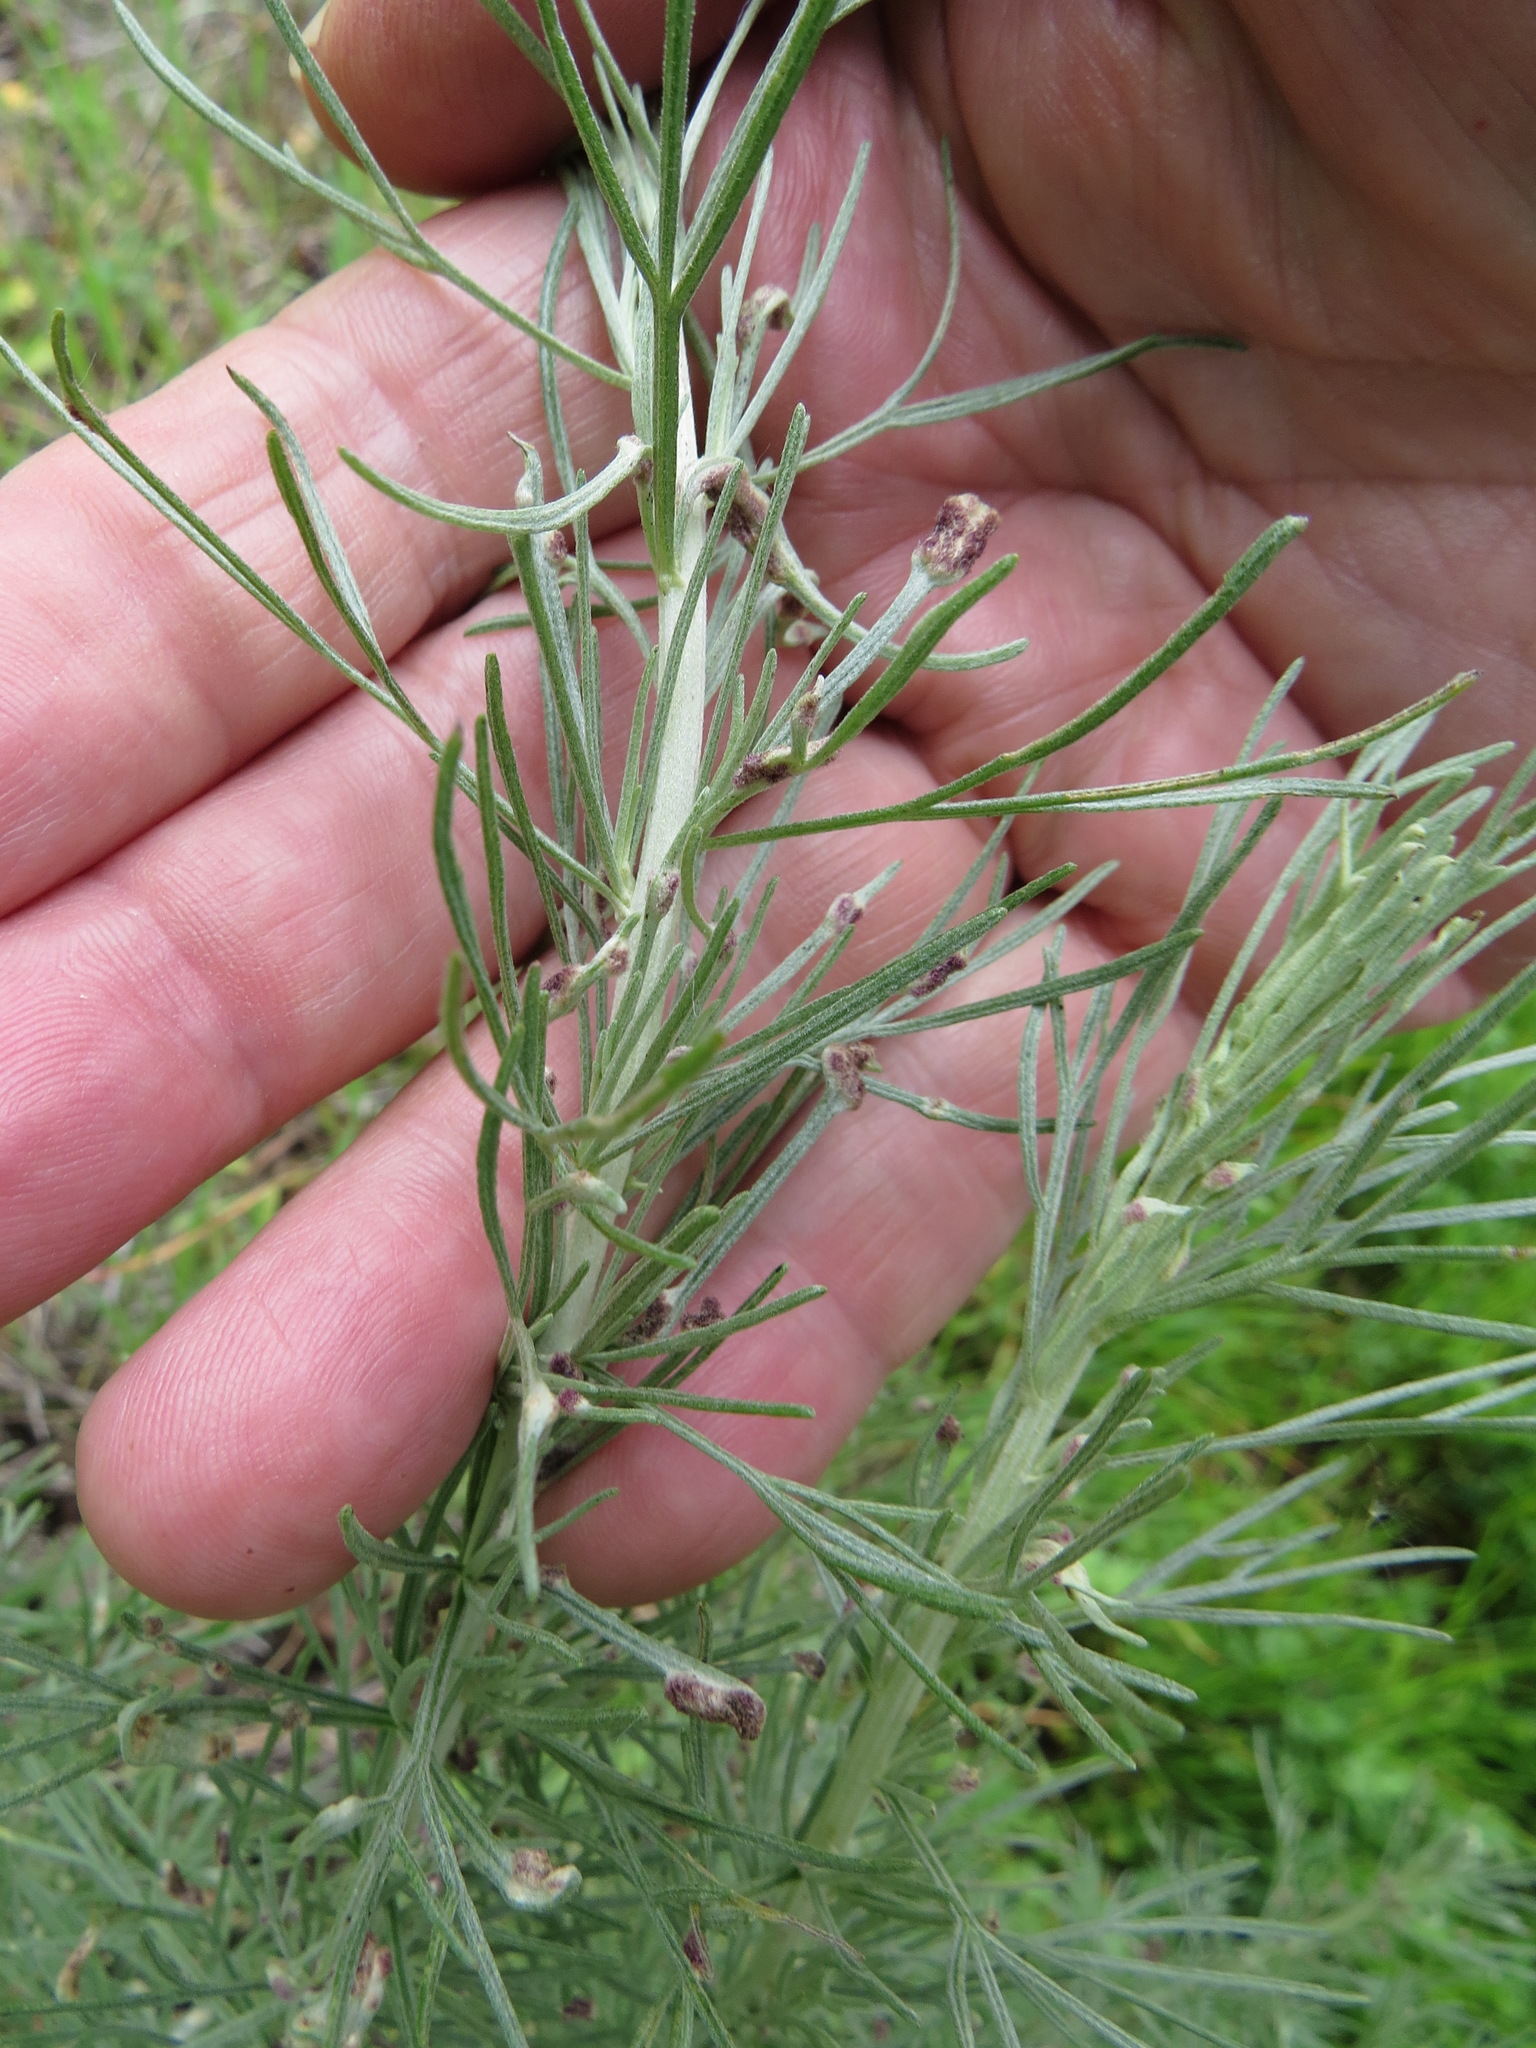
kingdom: Plantae
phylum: Tracheophyta
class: Magnoliopsida
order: Asterales
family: Asteraceae
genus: Artemisia
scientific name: Artemisia californica
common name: California sagebrush
